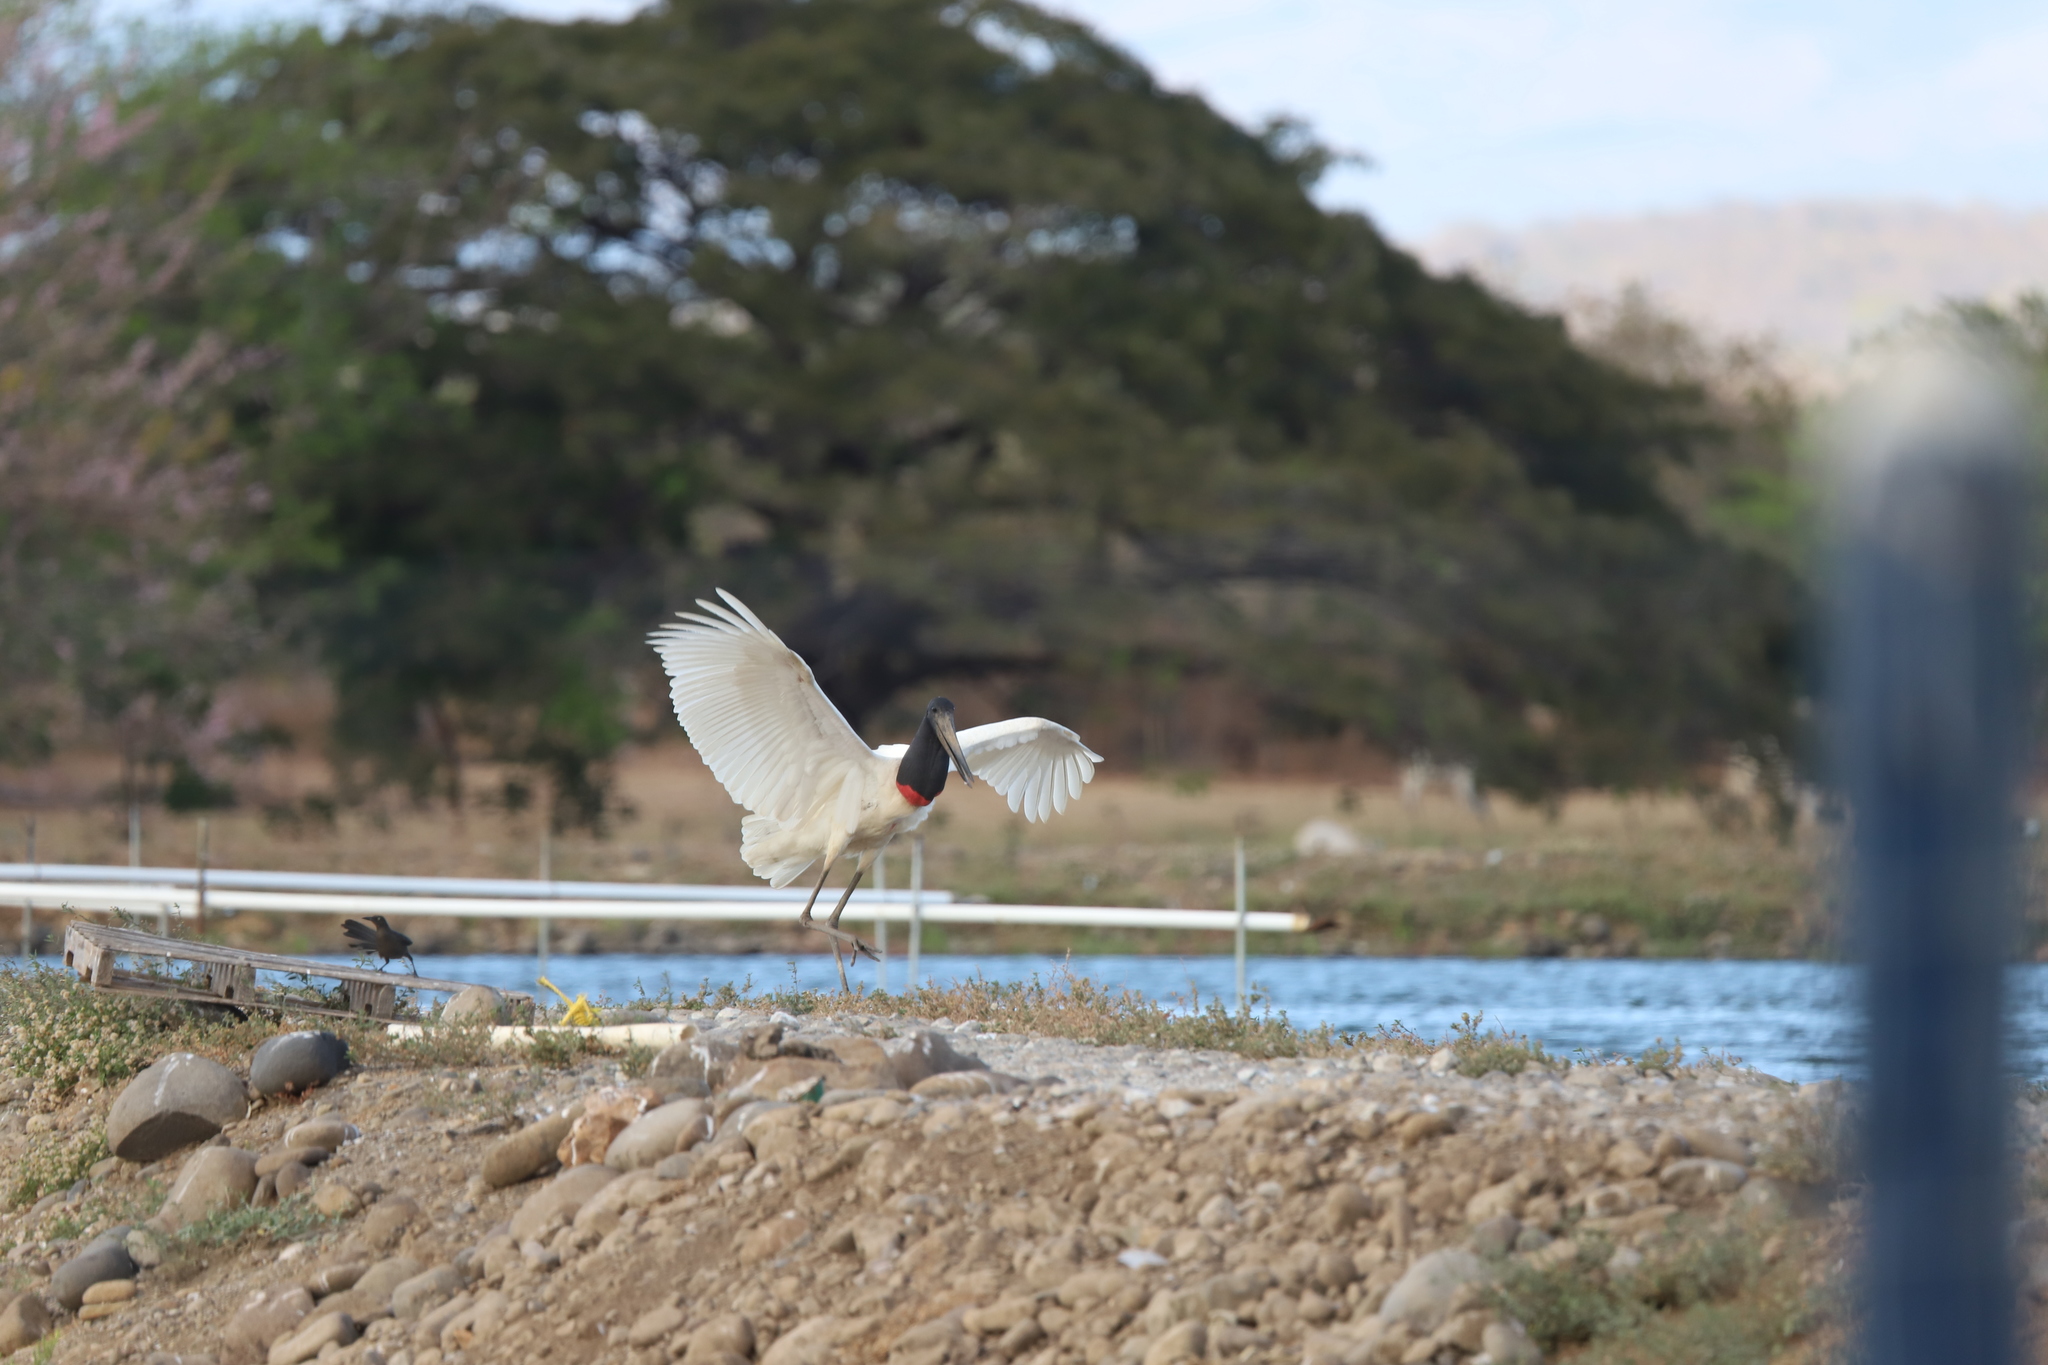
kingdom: Animalia
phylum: Chordata
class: Aves
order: Ciconiiformes
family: Ciconiidae
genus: Jabiru
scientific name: Jabiru mycteria
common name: Jabiru
